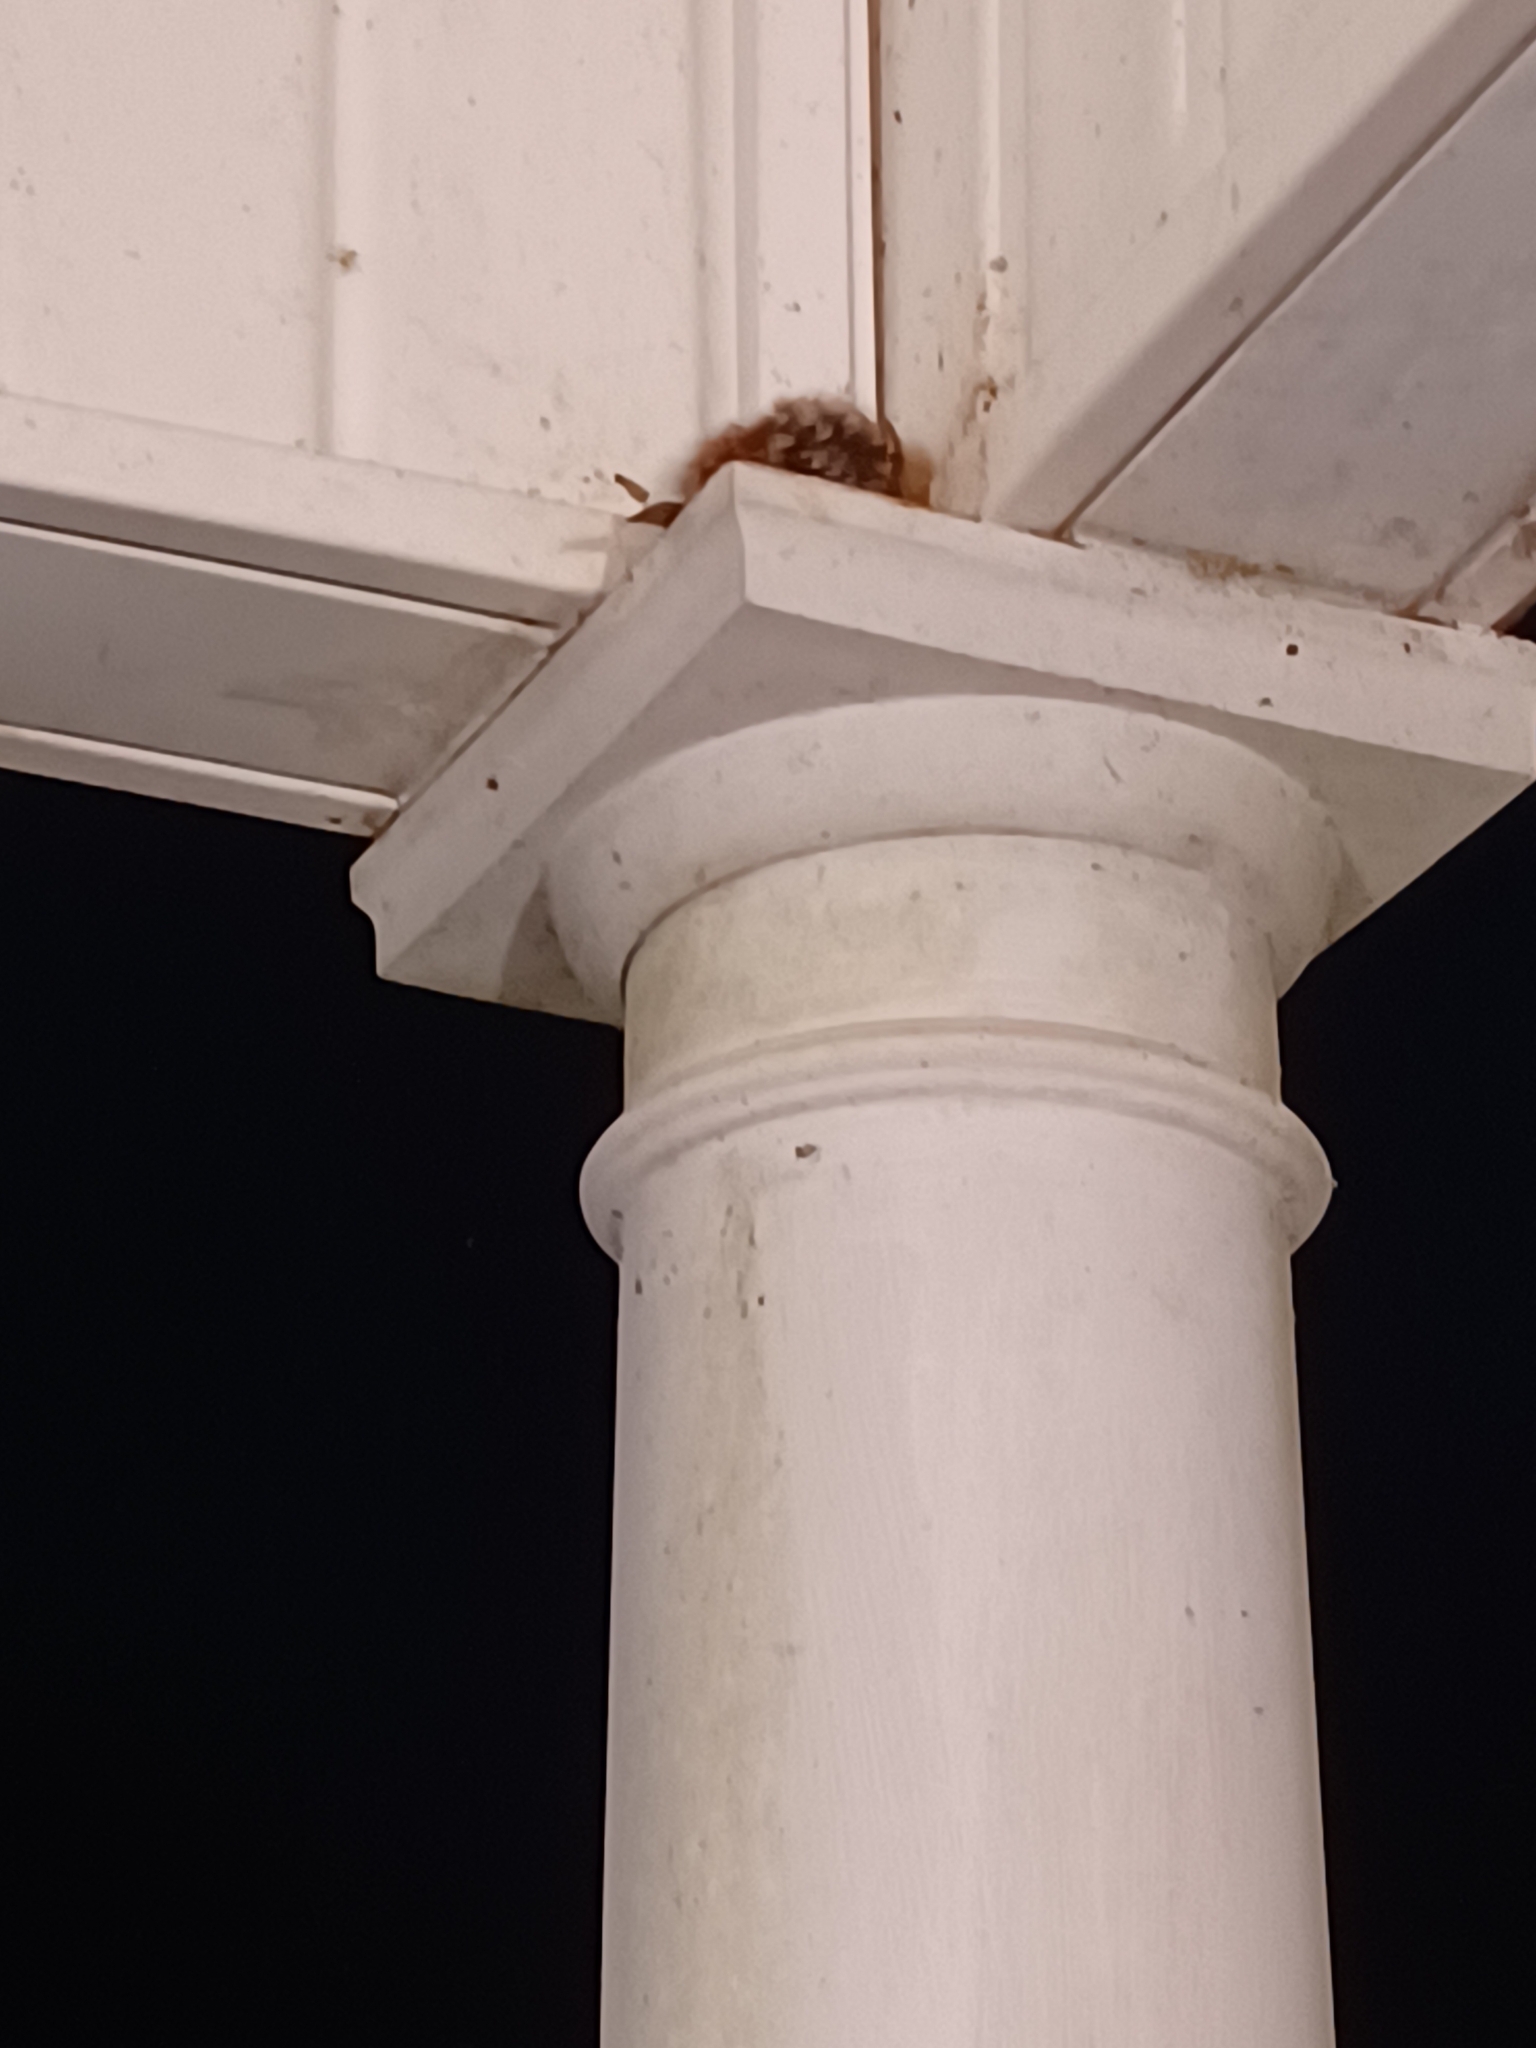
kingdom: Animalia
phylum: Chordata
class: Aves
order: Passeriformes
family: Troglodytidae
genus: Thryothorus
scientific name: Thryothorus ludovicianus
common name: Carolina wren
